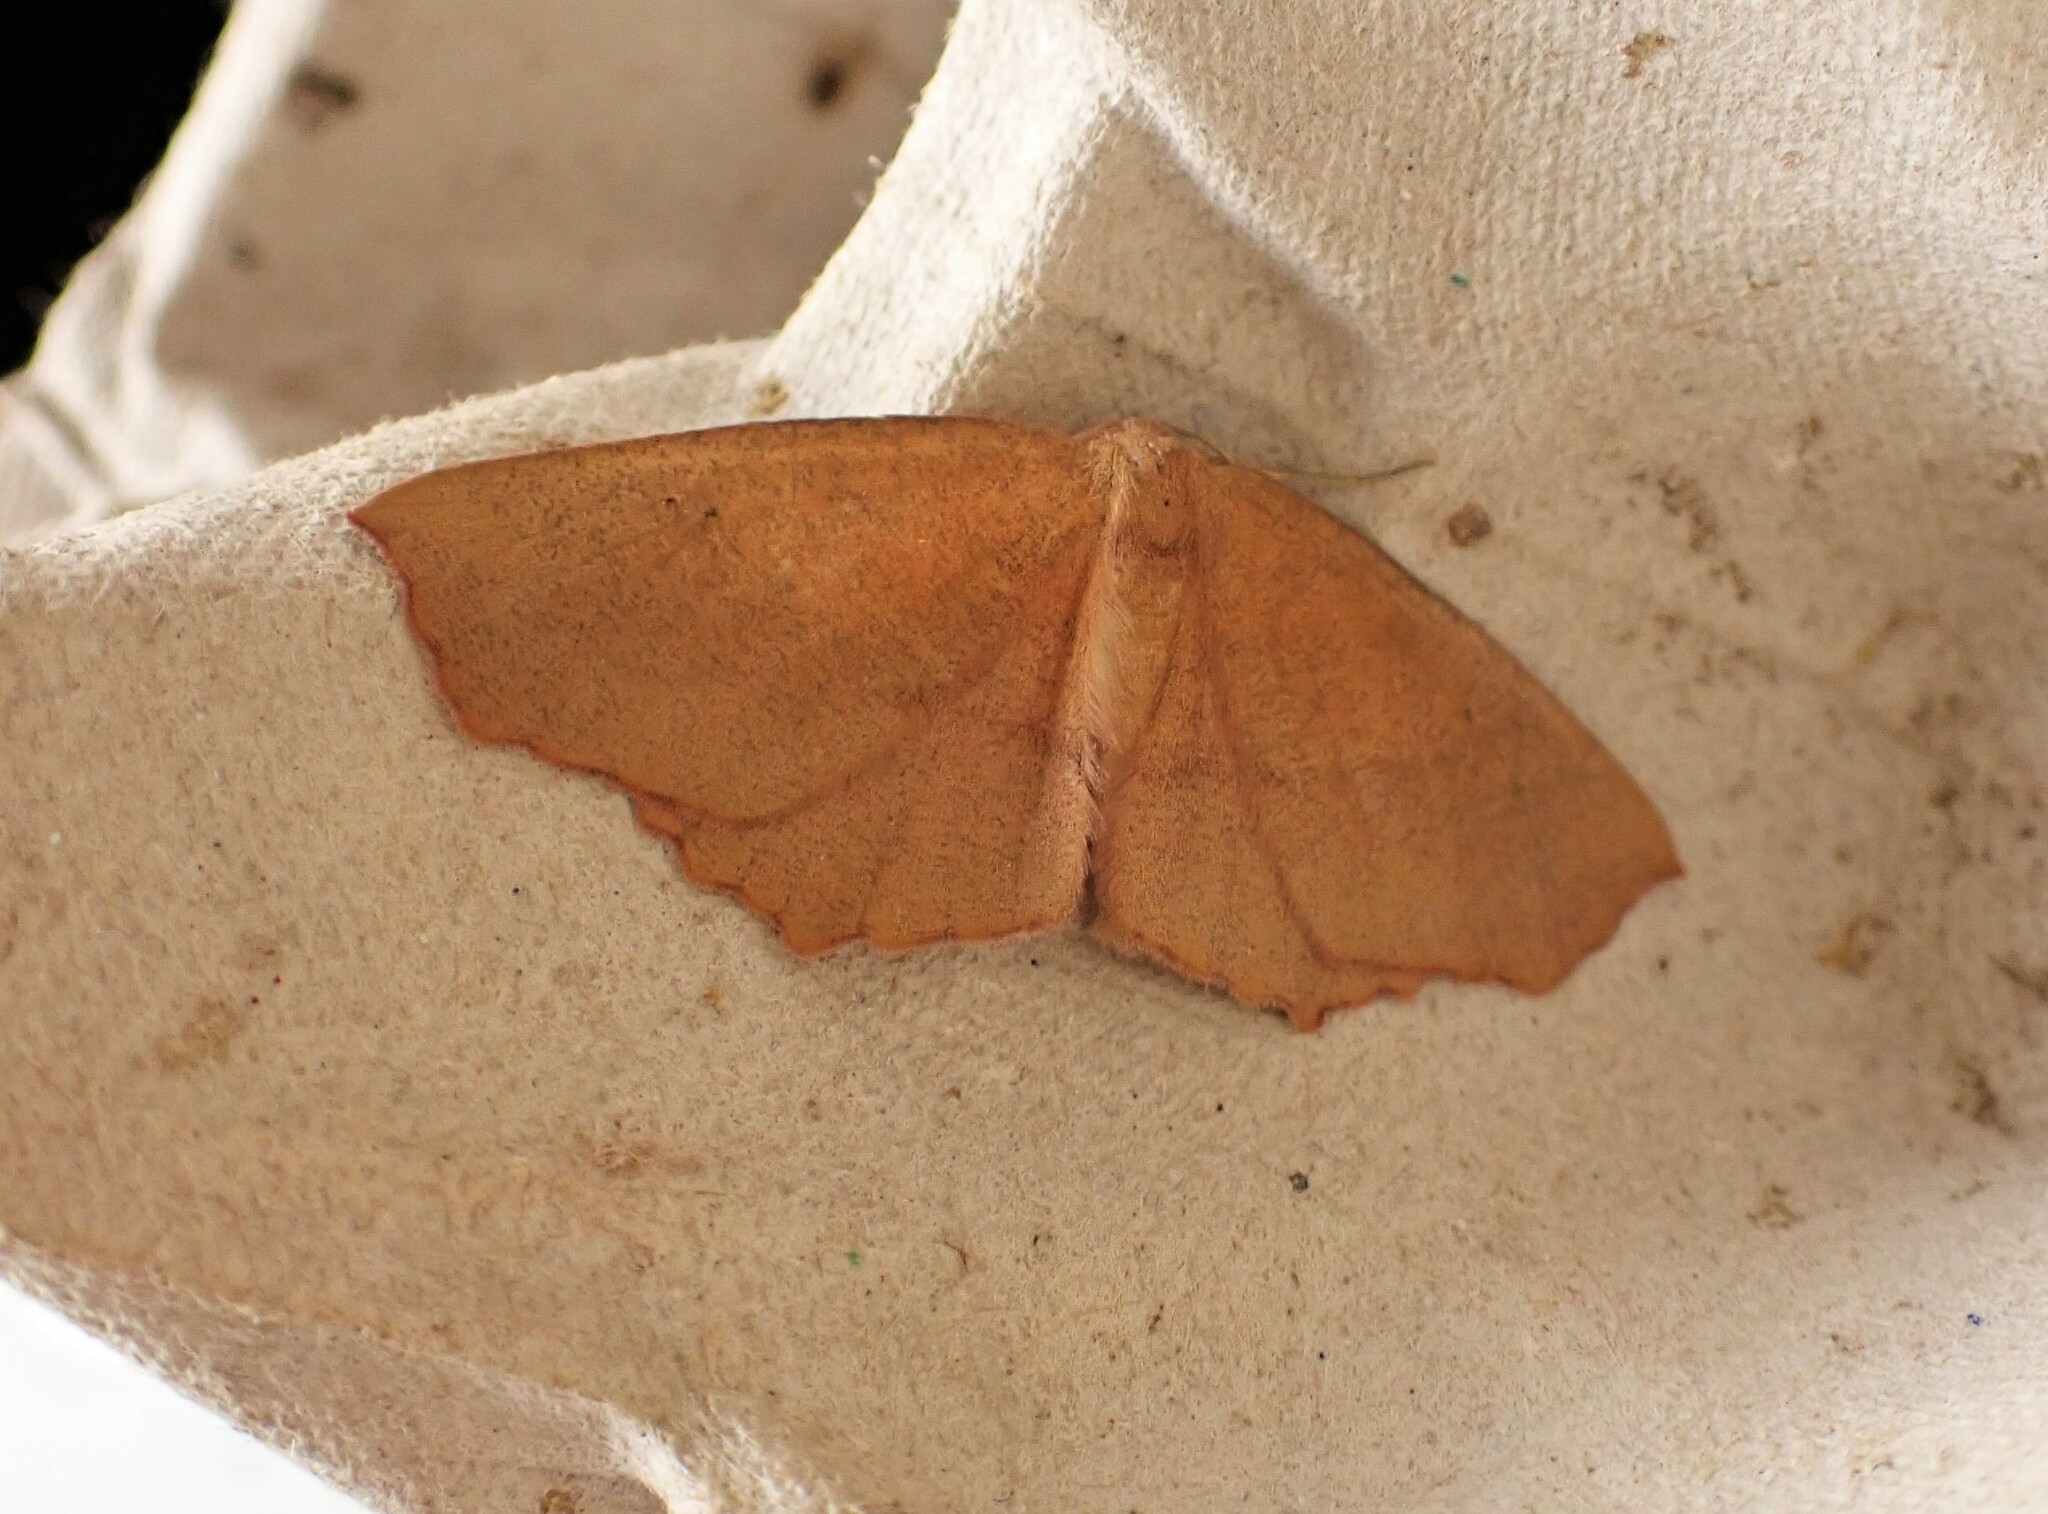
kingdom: Animalia
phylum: Arthropoda
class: Insecta
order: Lepidoptera
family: Geometridae
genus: Xyridacma
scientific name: Xyridacma ustaria
